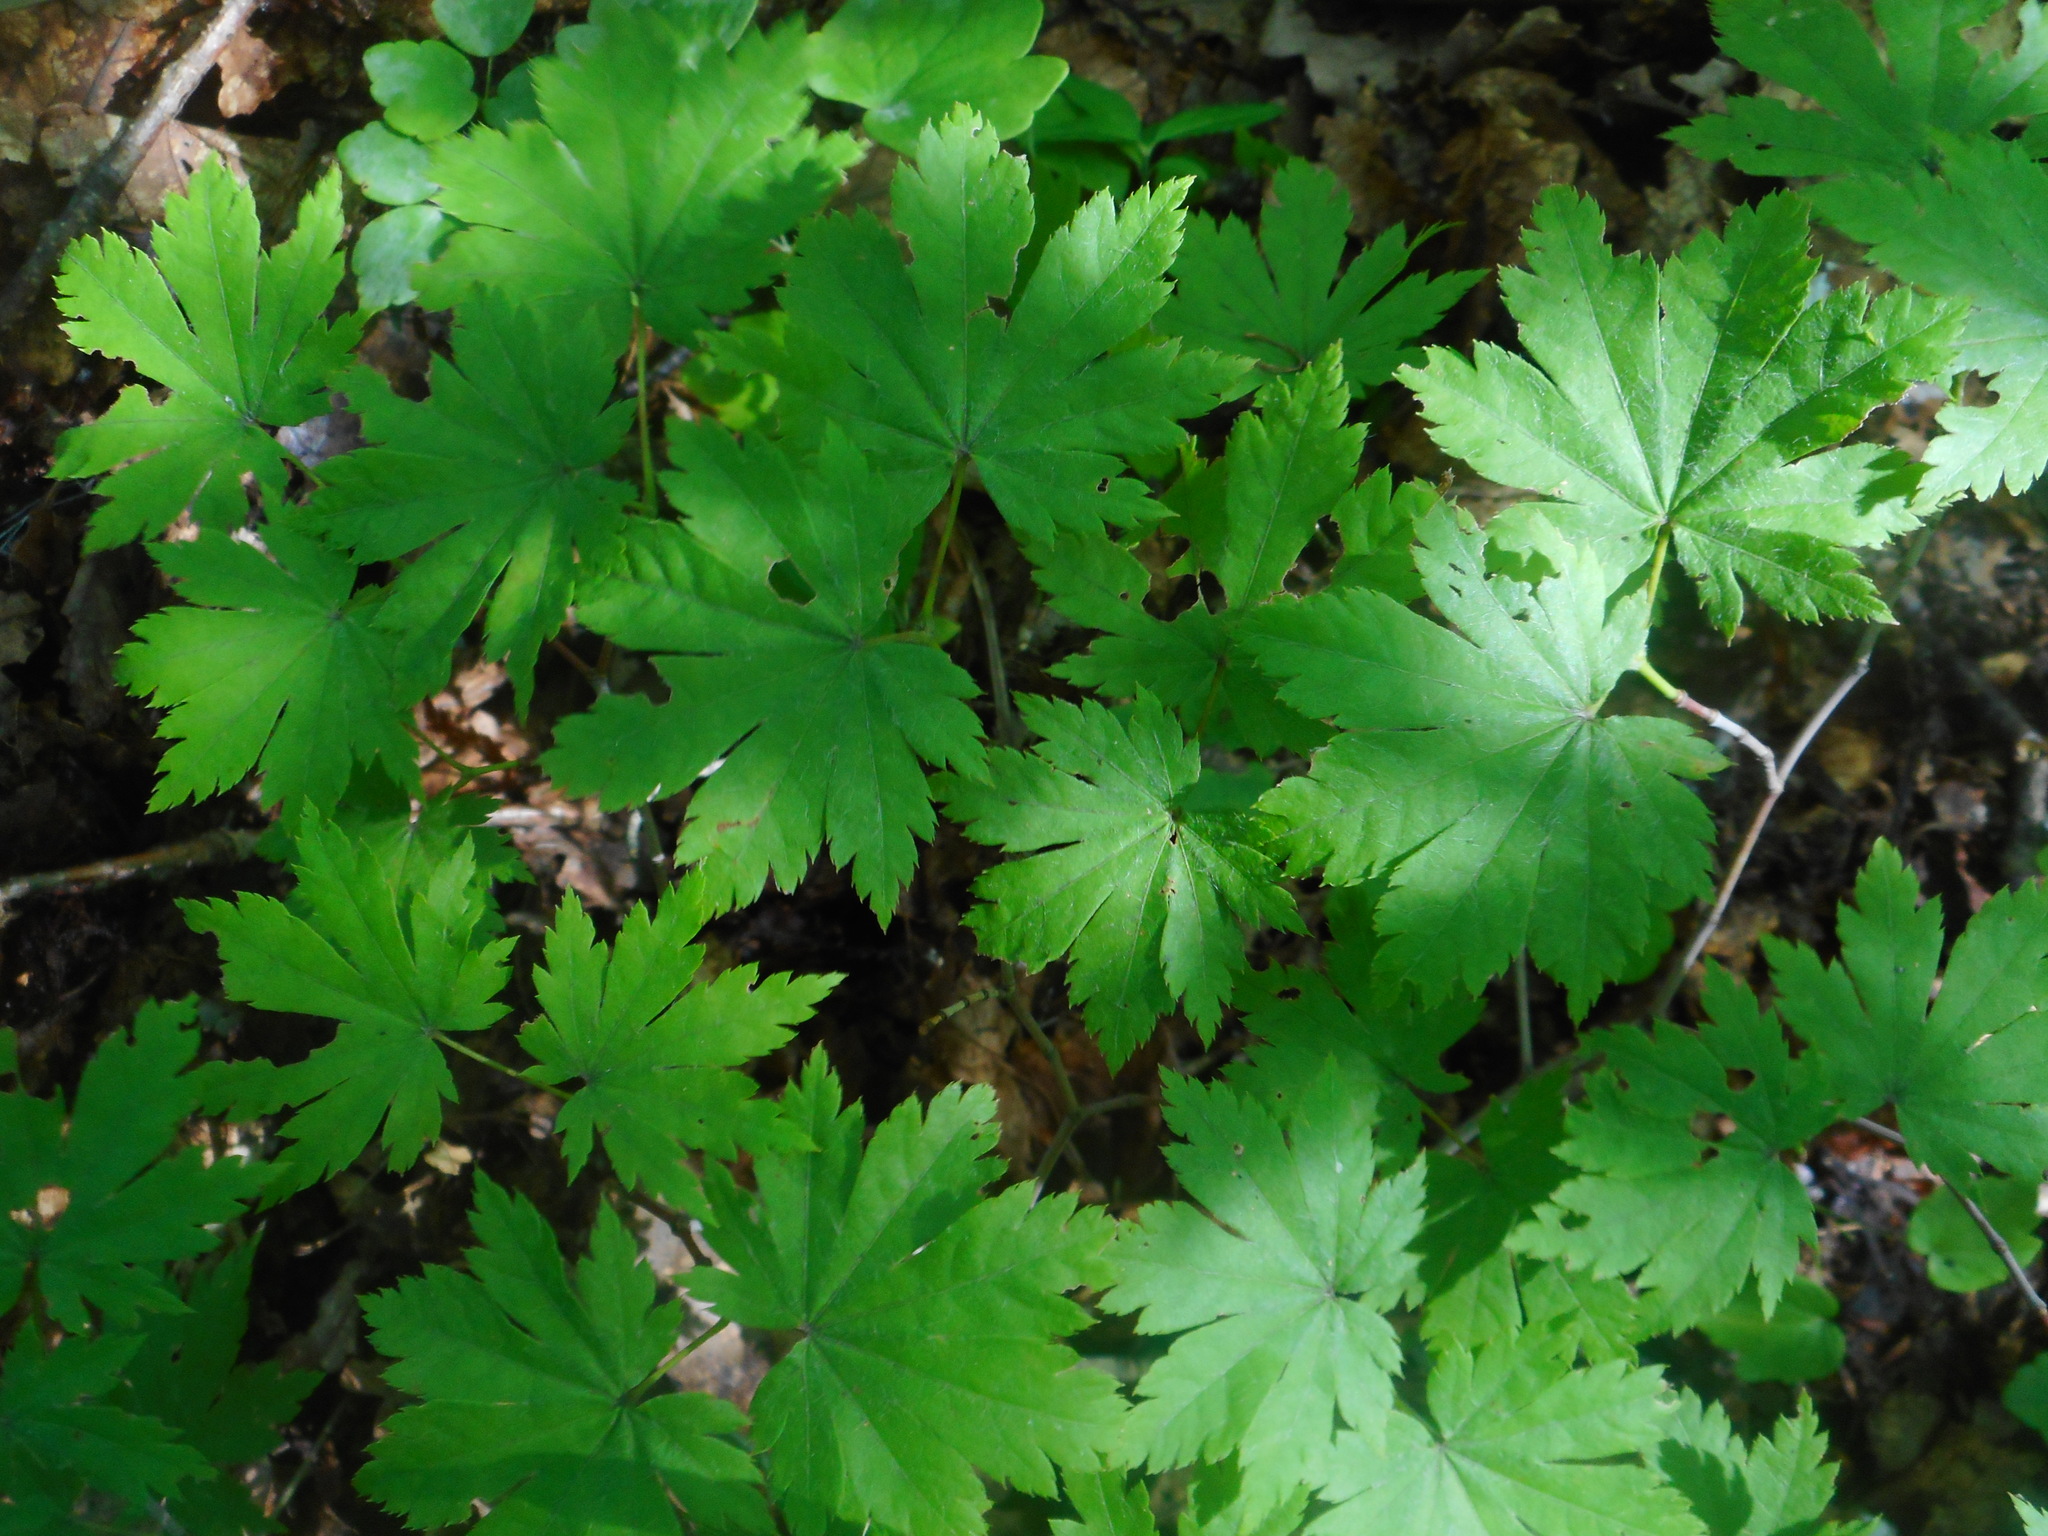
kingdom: Plantae
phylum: Tracheophyta
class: Magnoliopsida
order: Sapindales
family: Sapindaceae
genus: Acer
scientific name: Acer pseudosieboldianum
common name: Korean maple
